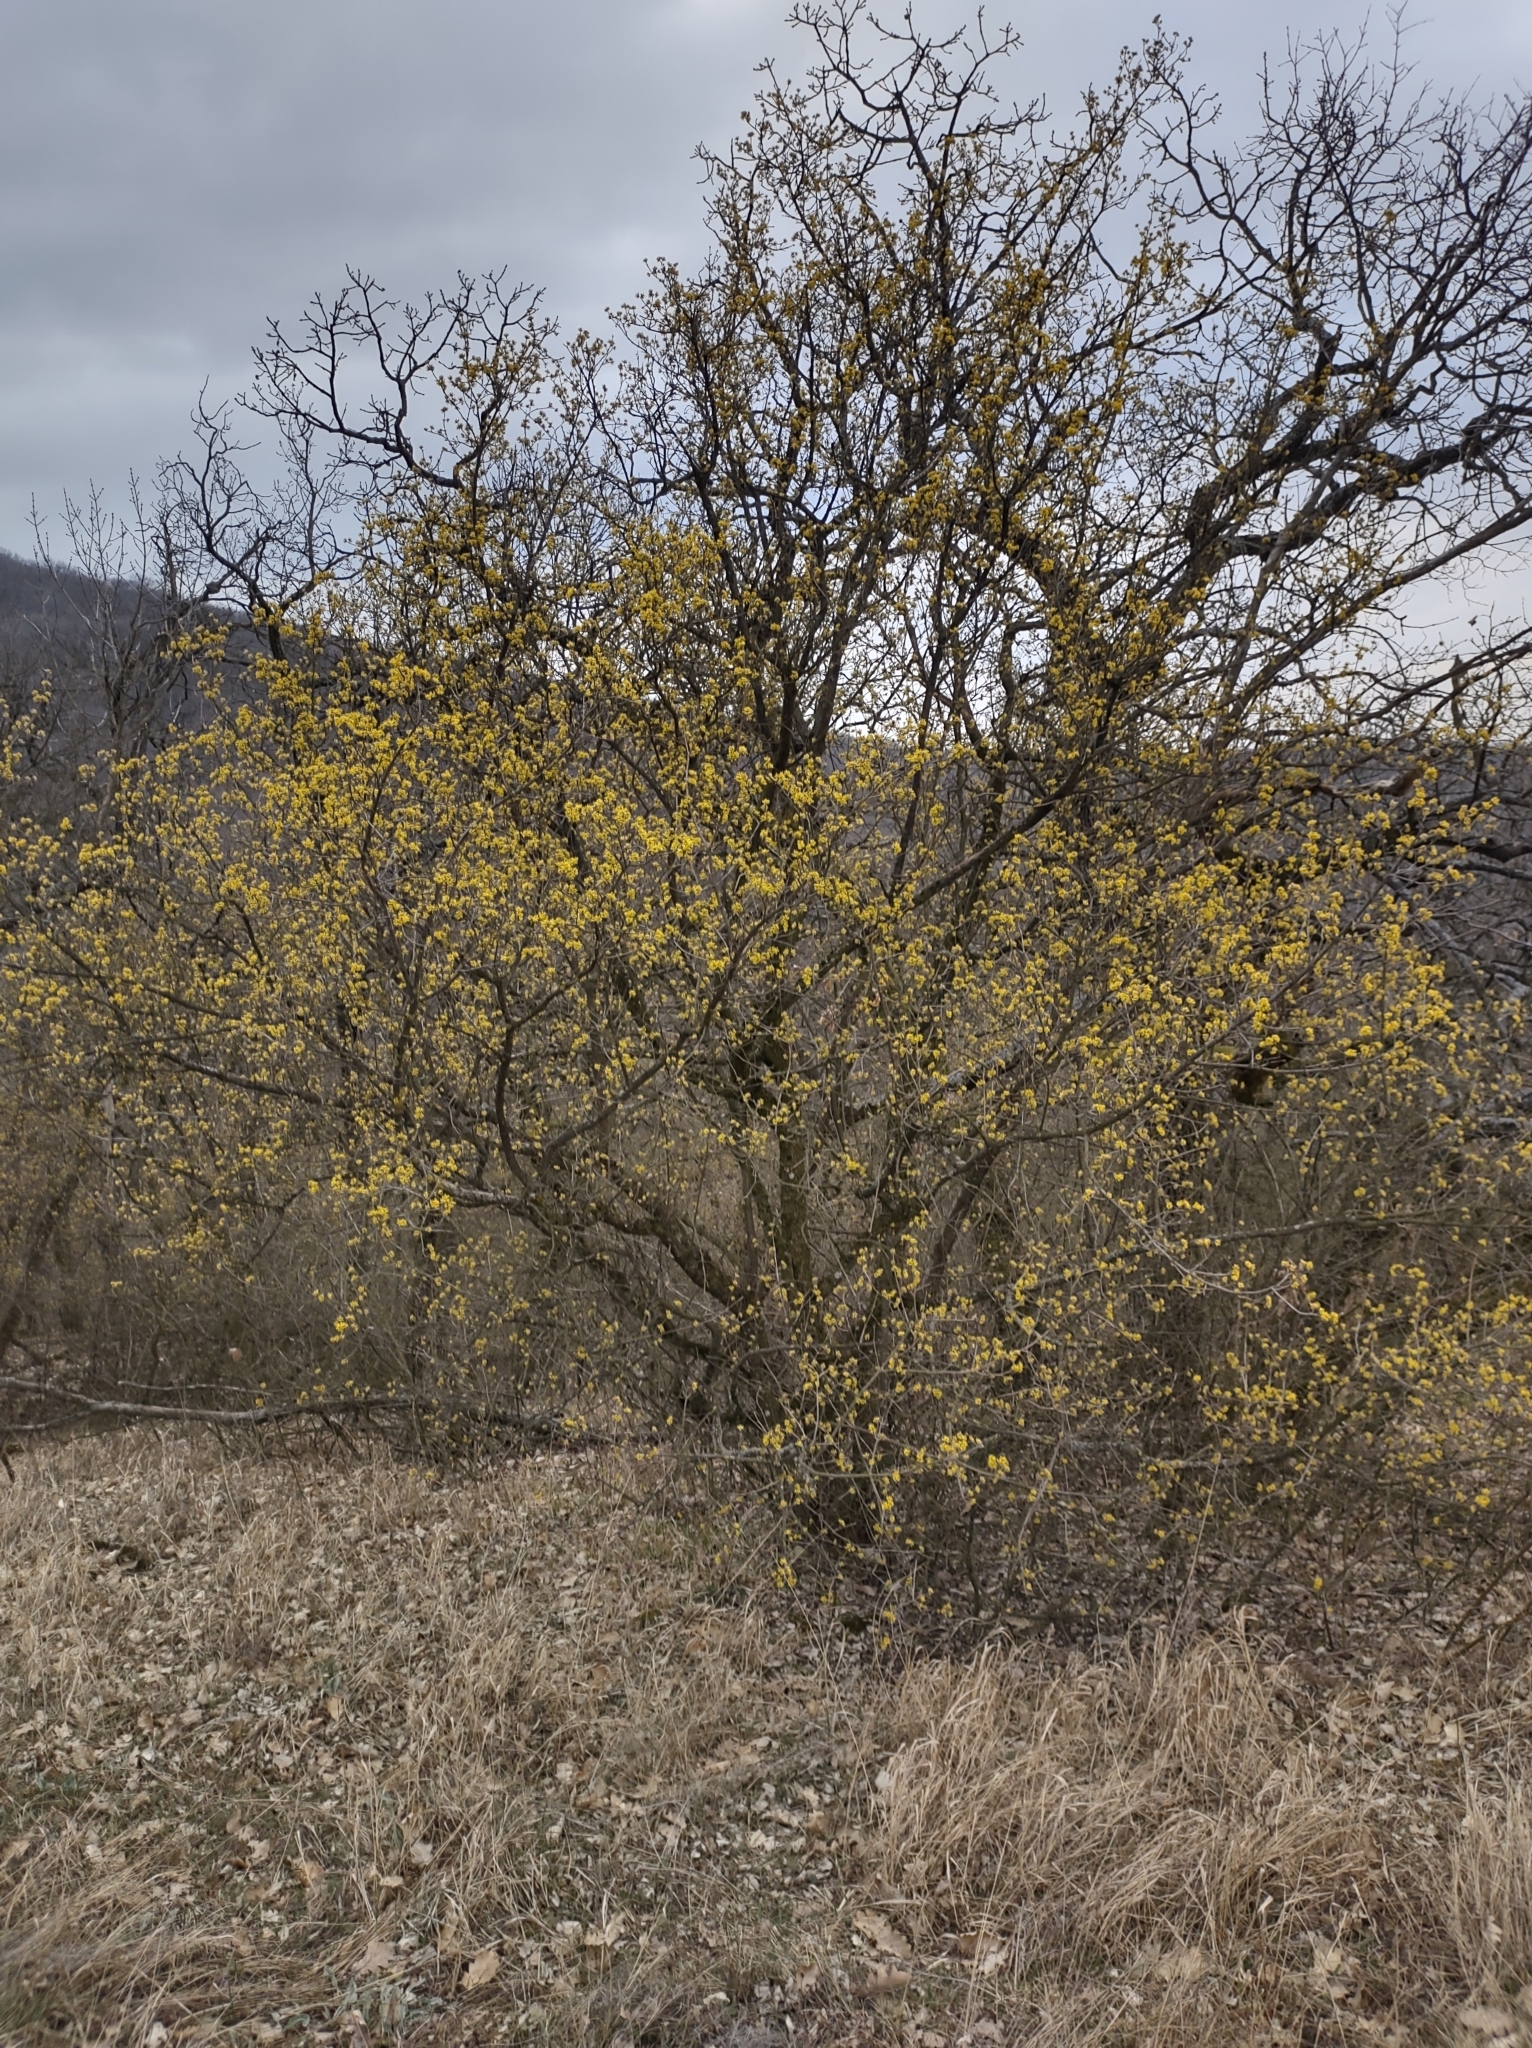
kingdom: Plantae
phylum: Tracheophyta
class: Magnoliopsida
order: Cornales
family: Cornaceae
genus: Cornus
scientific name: Cornus mas
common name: Cornelian-cherry
